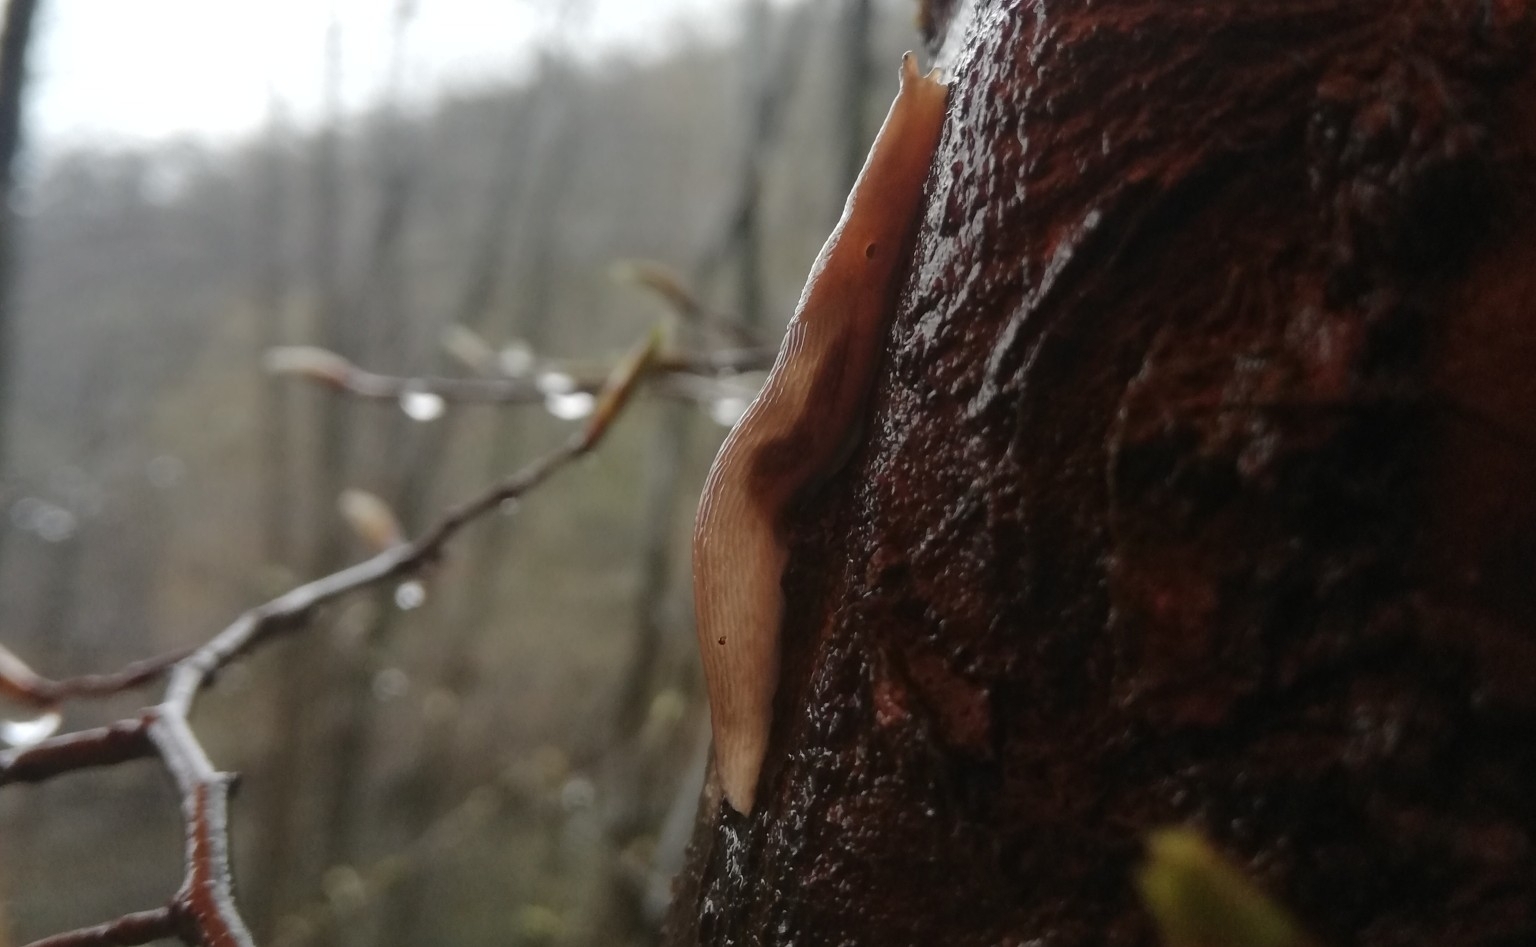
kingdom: Animalia
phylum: Mollusca
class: Gastropoda
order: Stylommatophora
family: Limacidae
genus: Lehmannia
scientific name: Lehmannia marginata
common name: Tree slug
